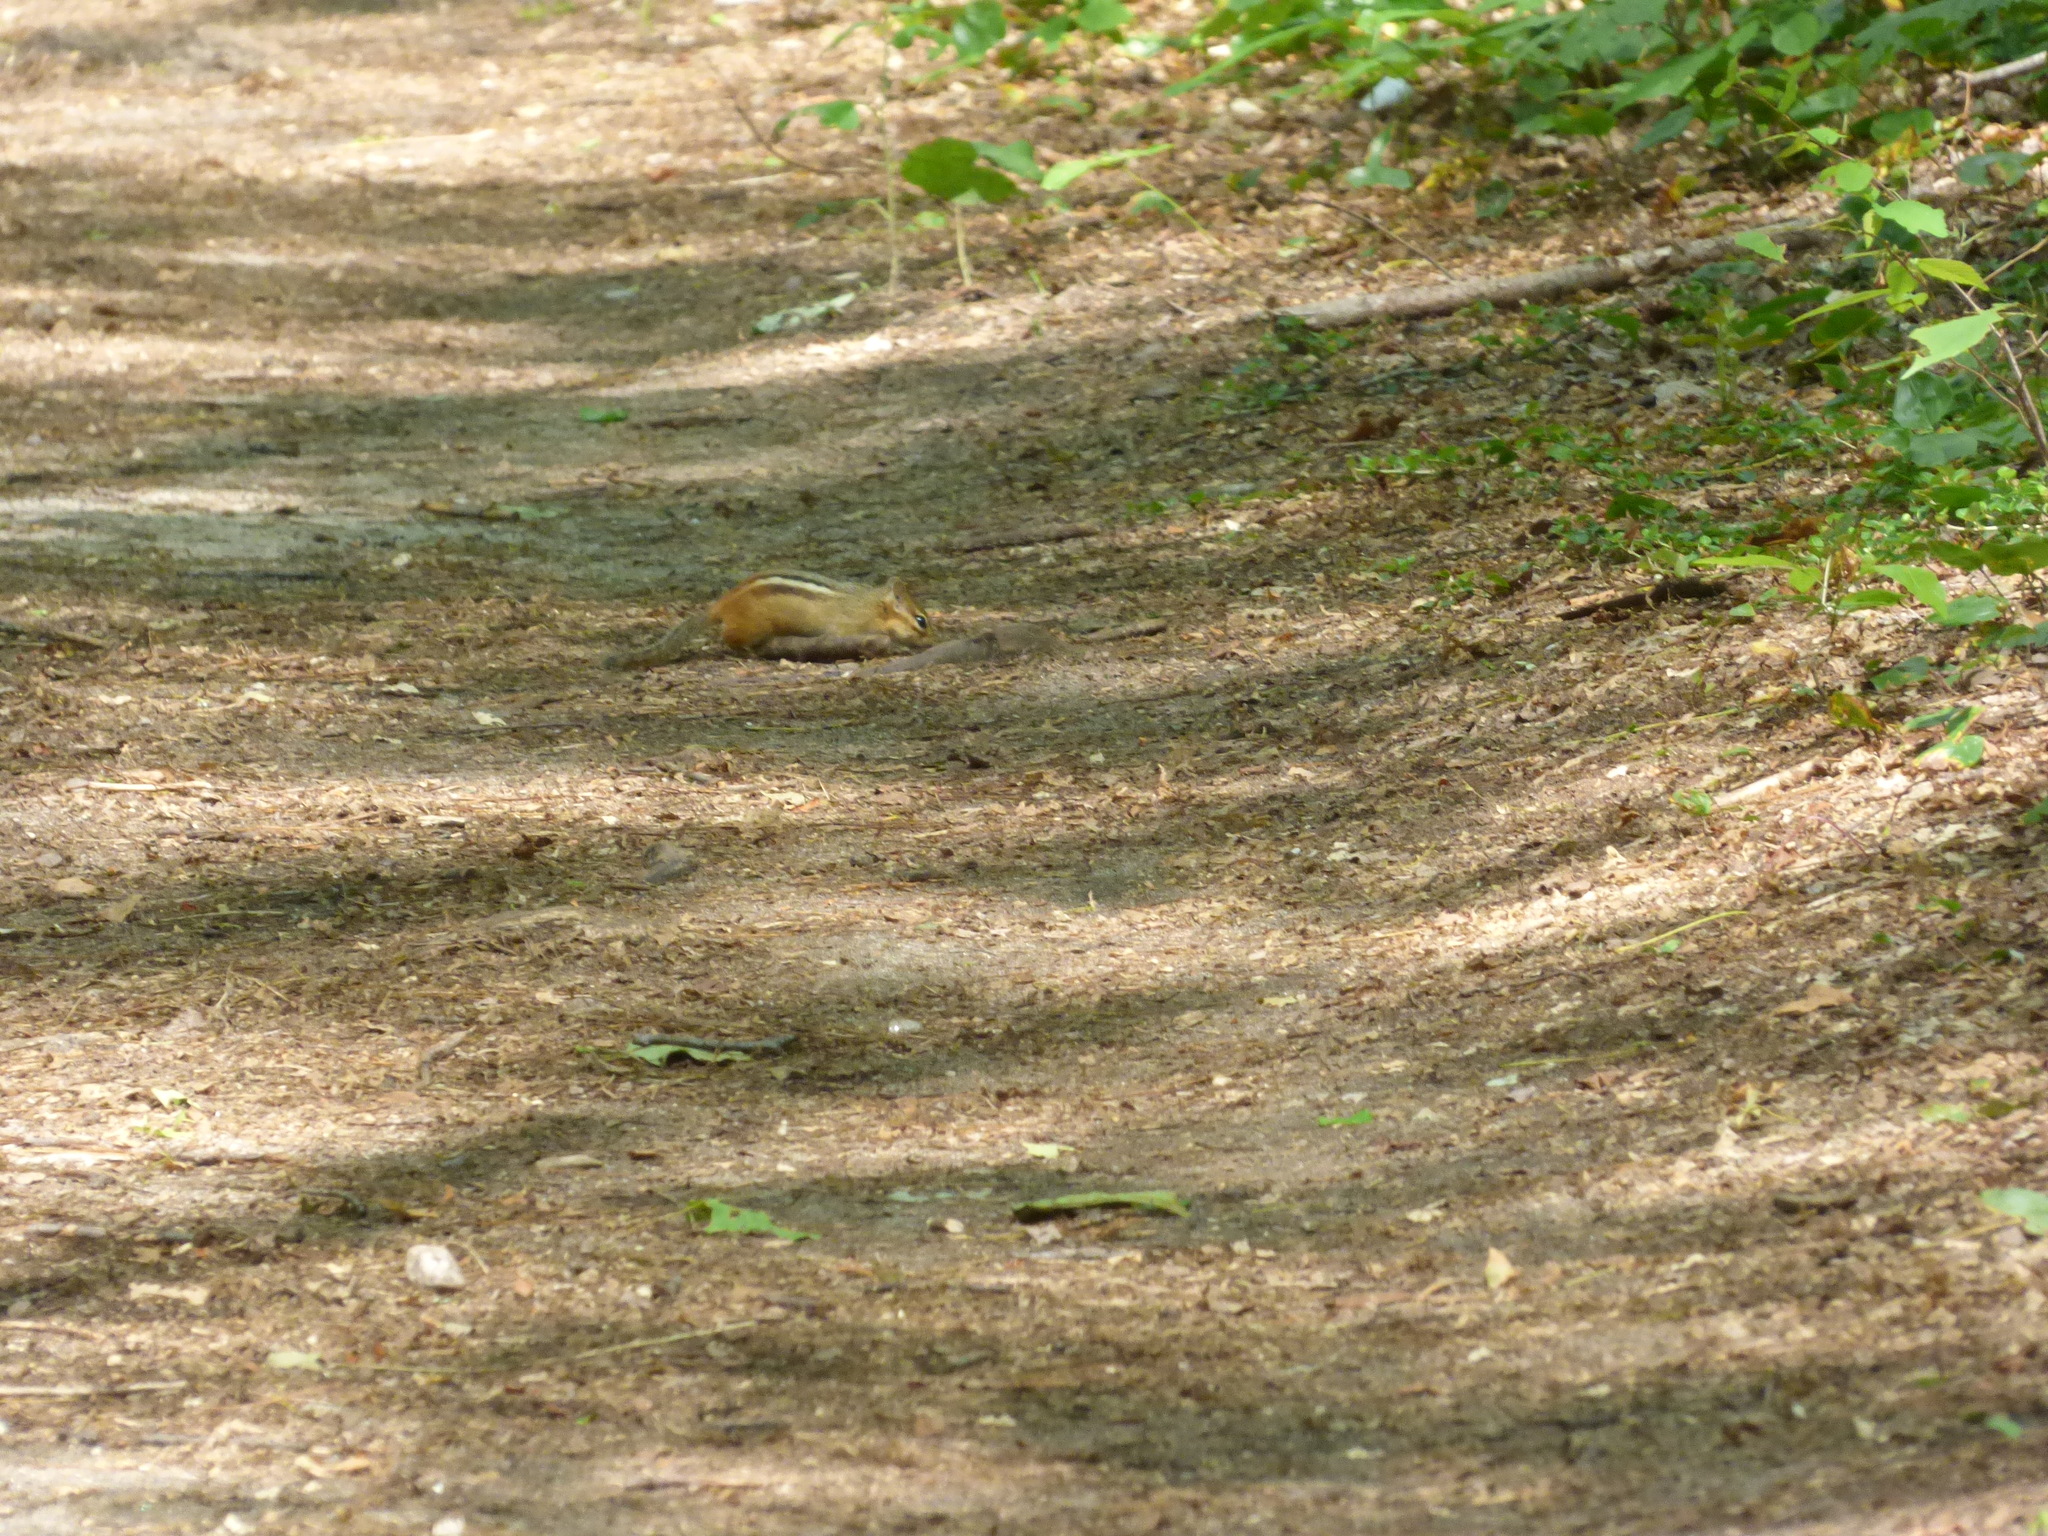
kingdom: Animalia
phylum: Chordata
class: Mammalia
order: Rodentia
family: Sciuridae
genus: Tamias
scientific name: Tamias striatus
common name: Eastern chipmunk
